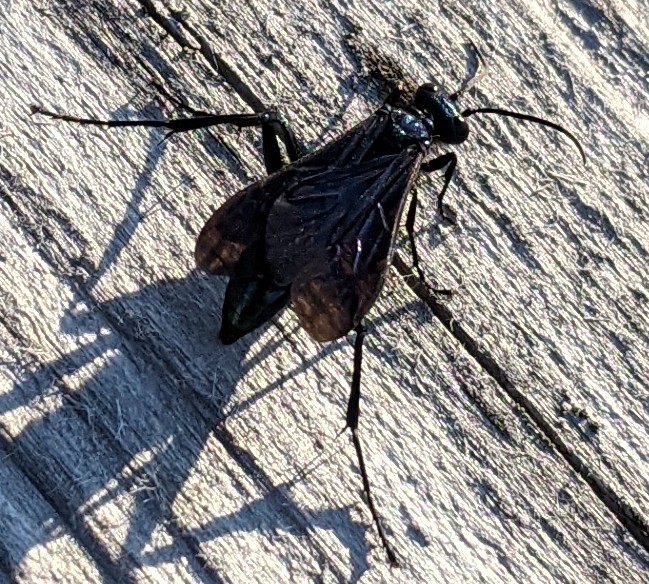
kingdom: Animalia
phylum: Arthropoda
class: Insecta
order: Hymenoptera
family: Sphecidae
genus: Chalybion
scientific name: Chalybion californicum
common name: Mud dauber
